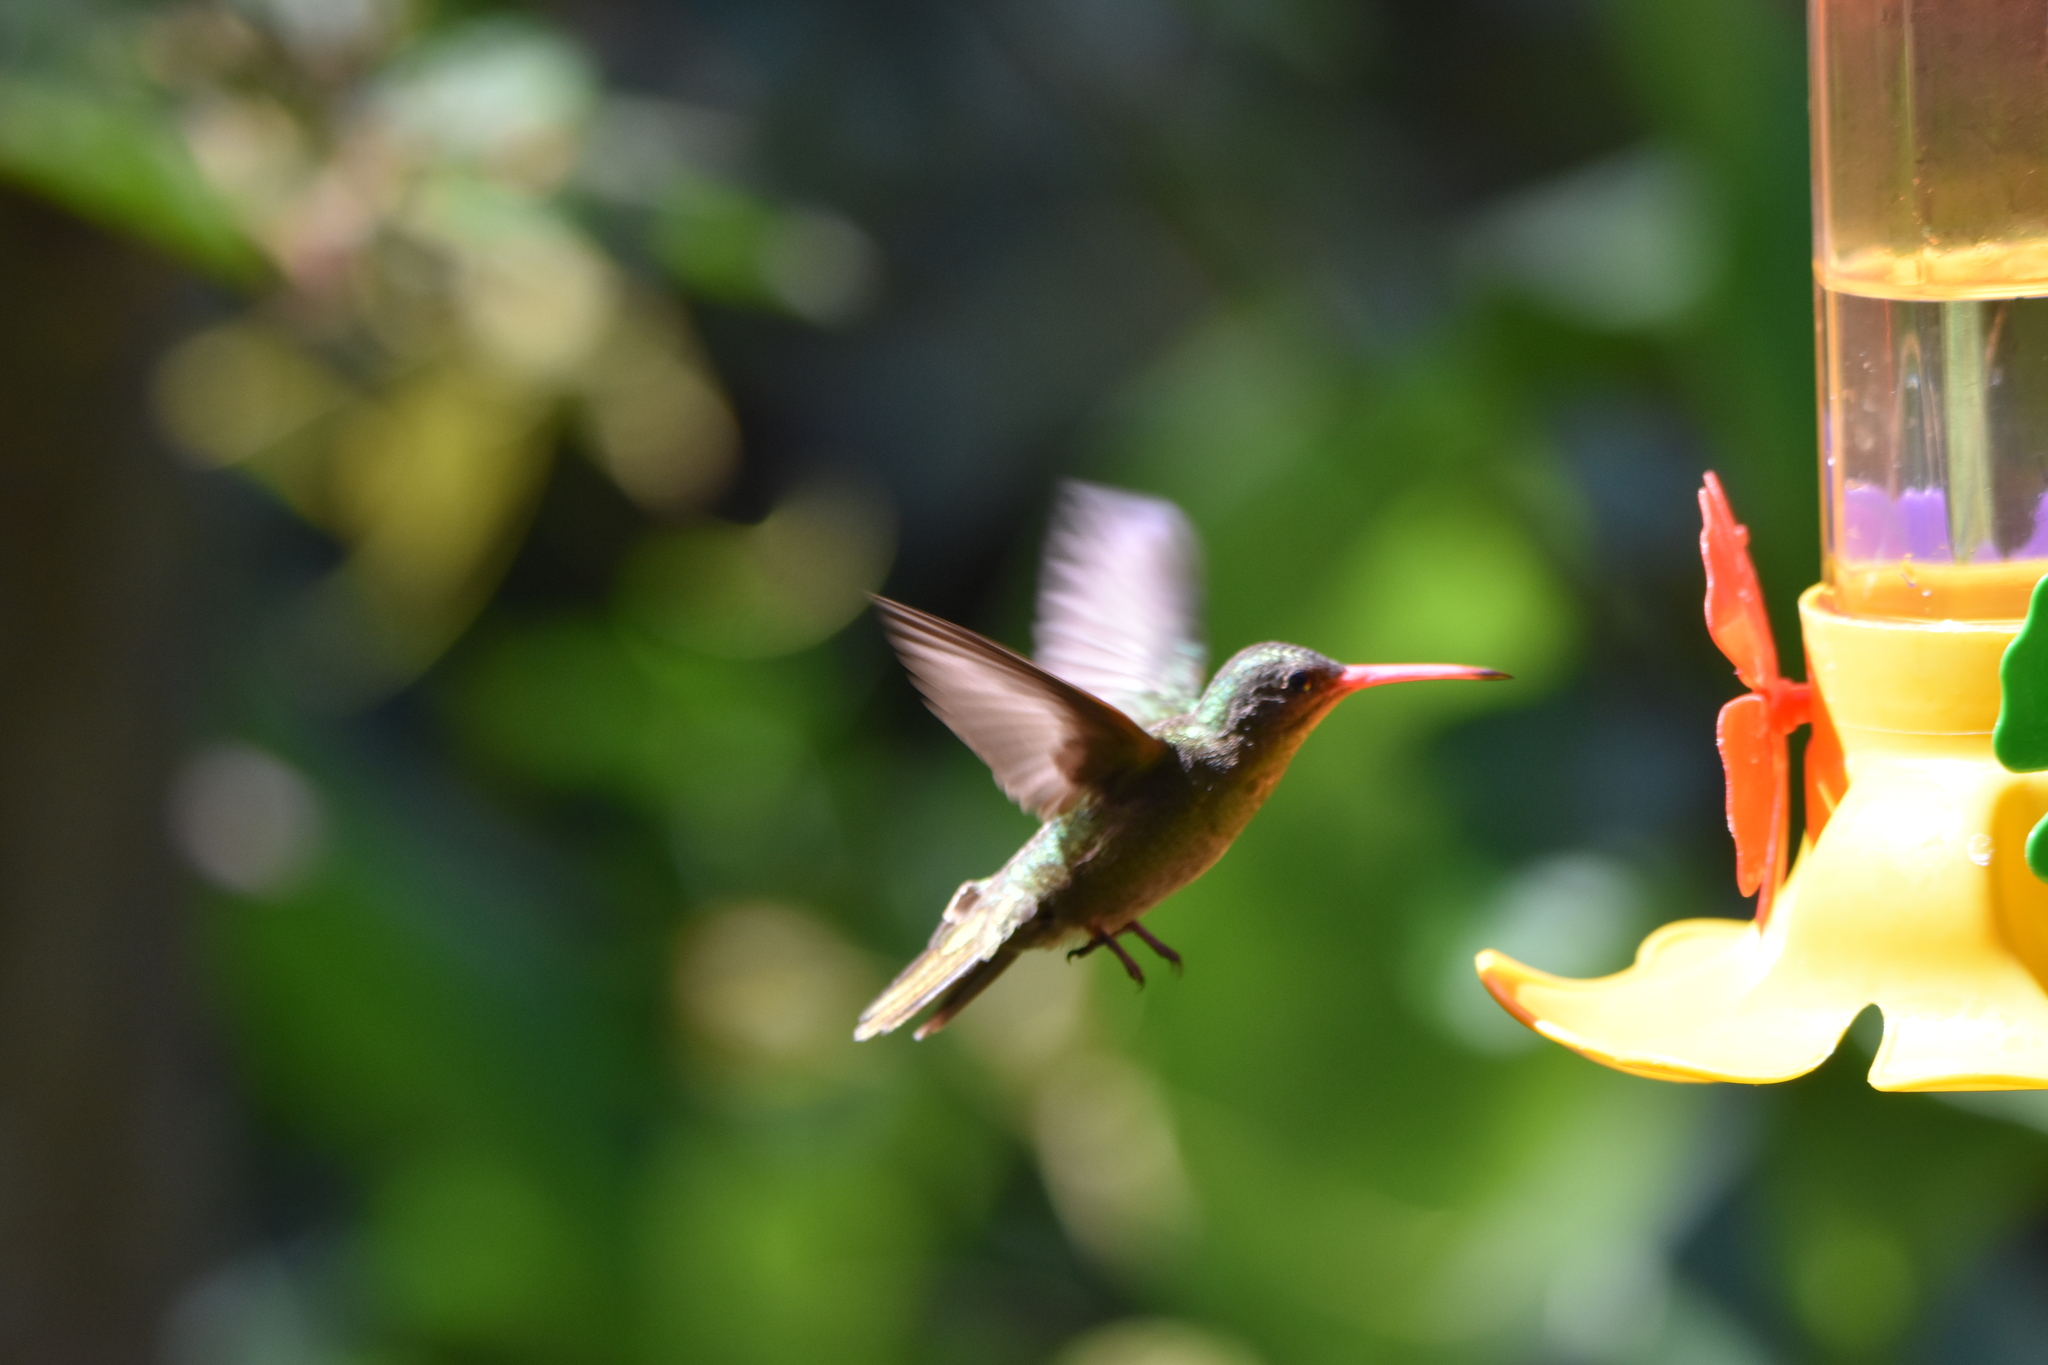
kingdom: Animalia
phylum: Chordata
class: Aves
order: Apodiformes
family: Trochilidae
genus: Hylocharis
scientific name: Hylocharis chrysura
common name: Gilded sapphire
